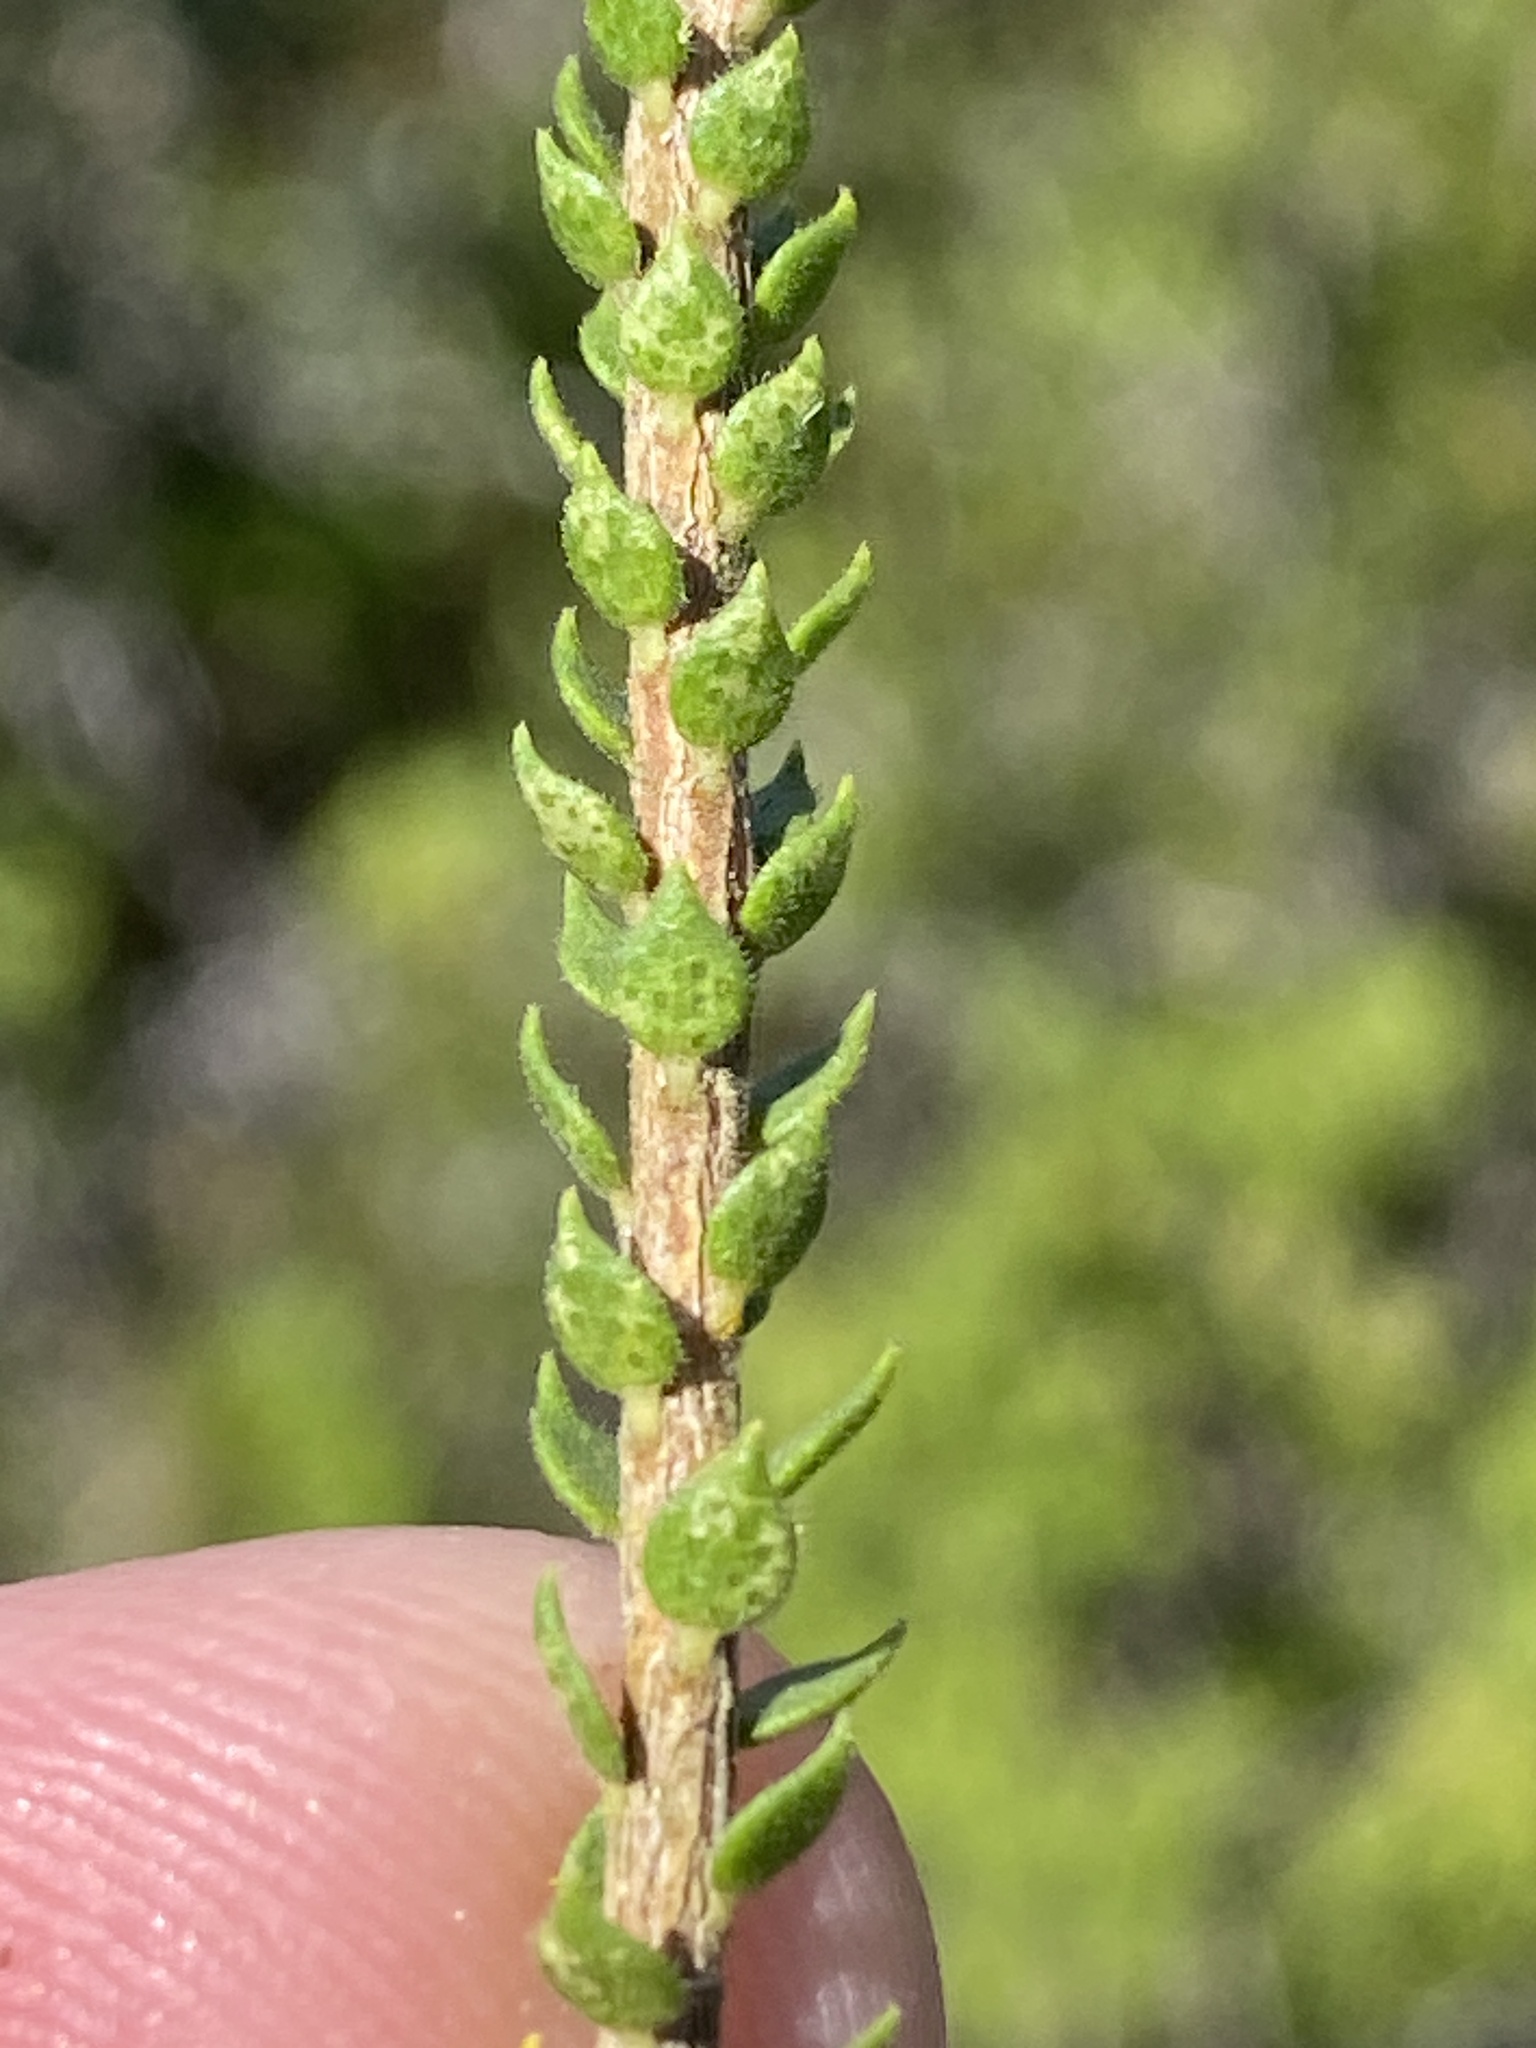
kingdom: Plantae
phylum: Tracheophyta
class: Magnoliopsida
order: Sapindales
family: Rutaceae
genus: Agathosma
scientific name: Agathosma imbricata
